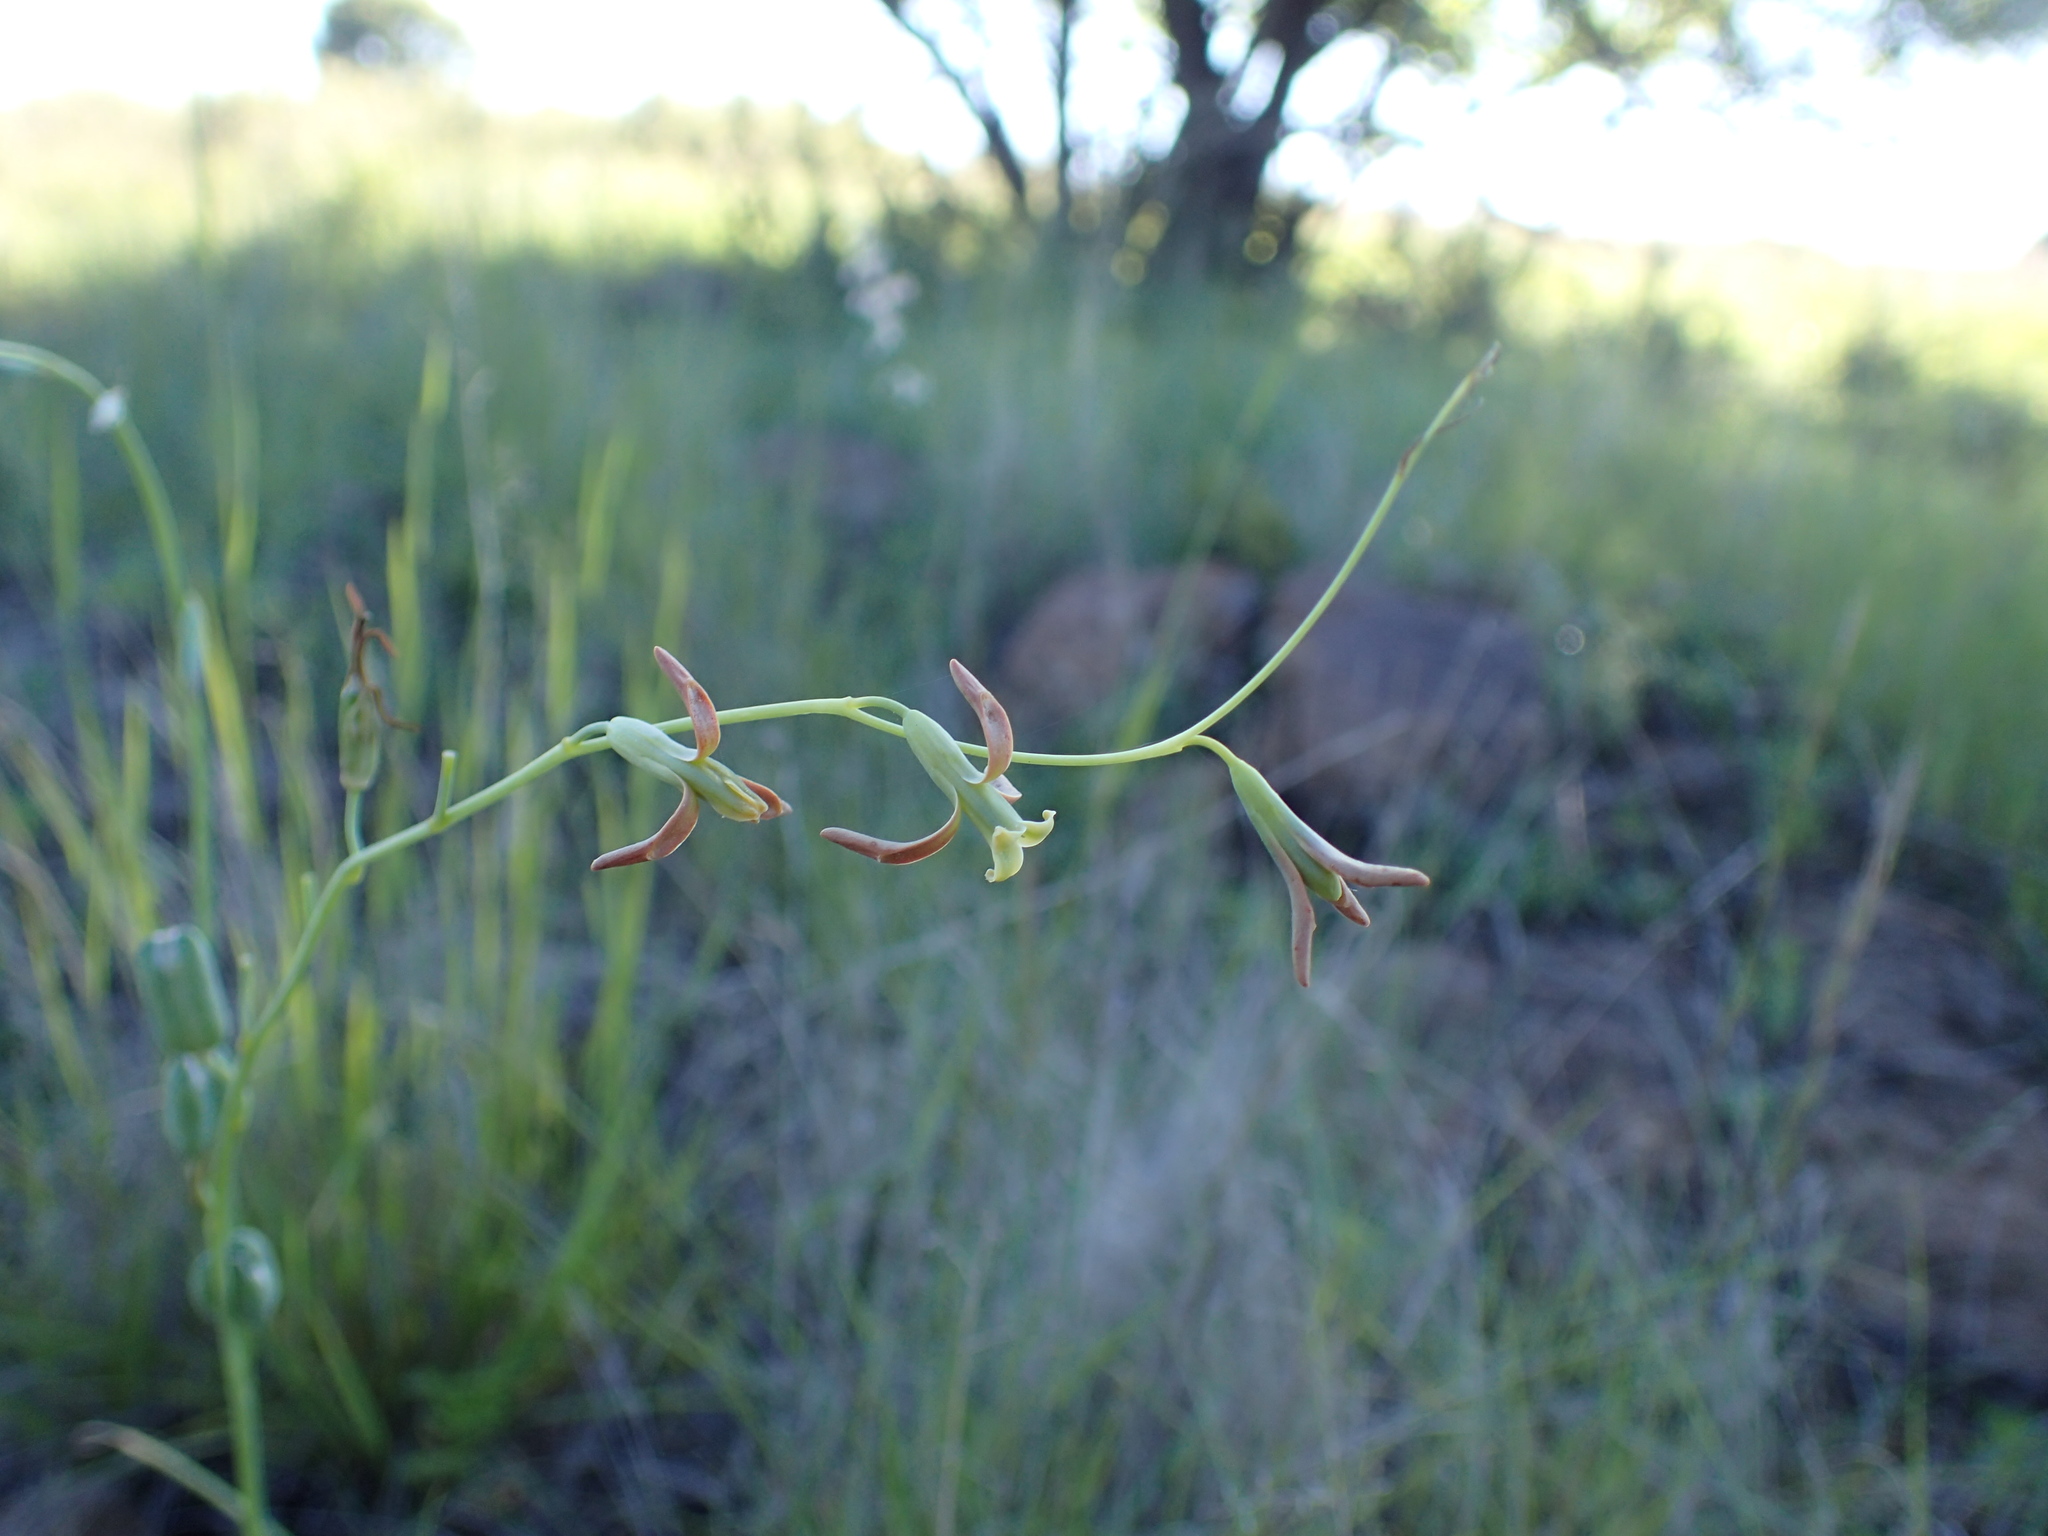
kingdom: Plantae
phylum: Tracheophyta
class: Liliopsida
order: Asparagales
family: Asparagaceae
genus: Dipcadi
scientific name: Dipcadi viride
